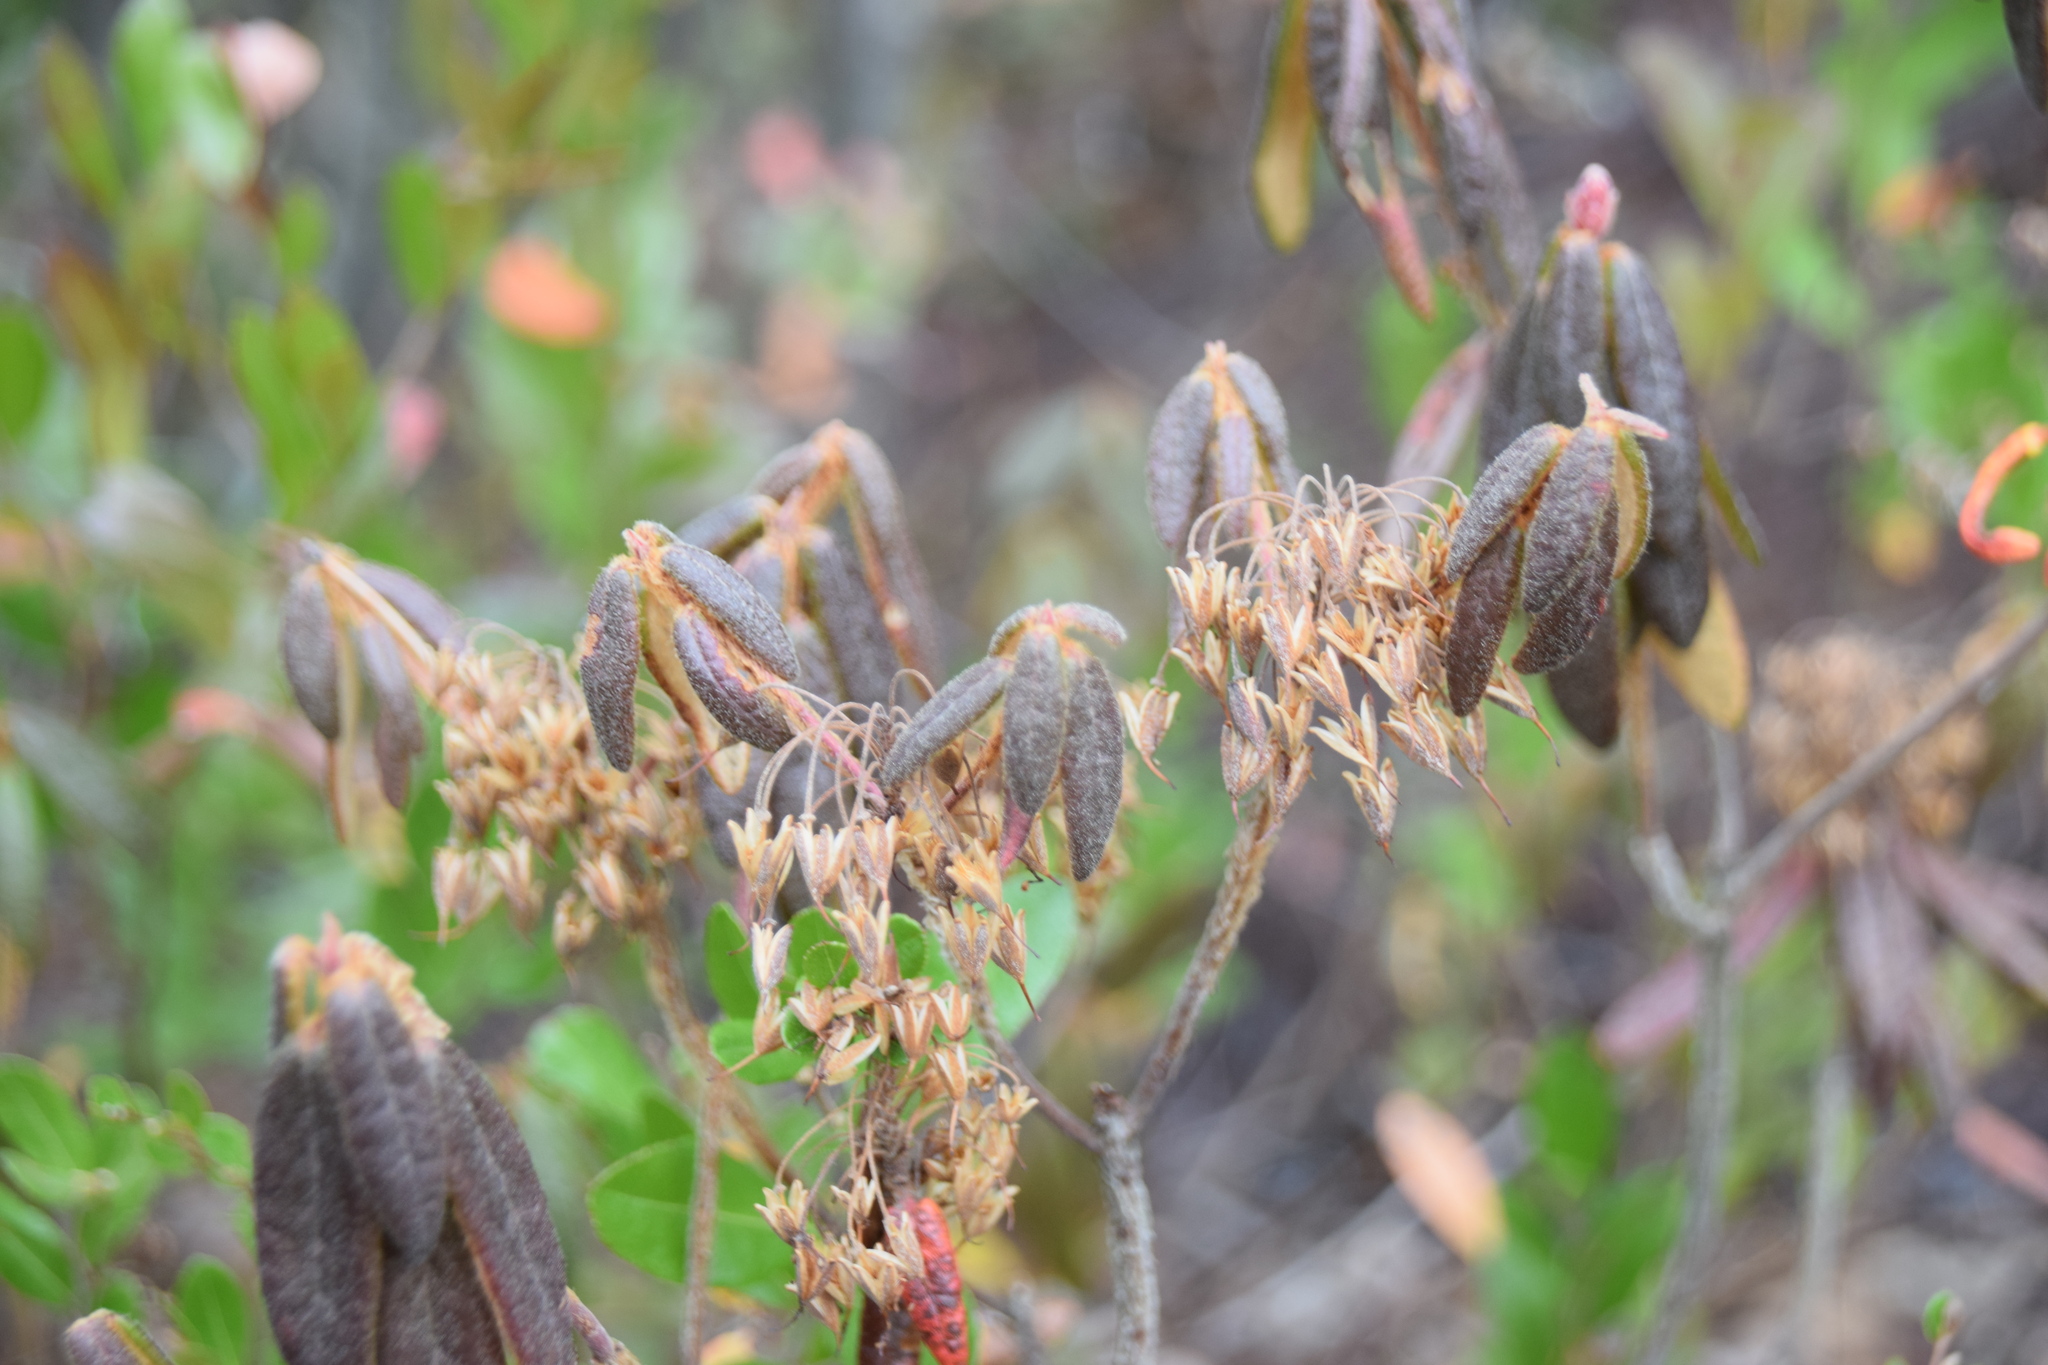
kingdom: Plantae
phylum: Tracheophyta
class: Magnoliopsida
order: Ericales
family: Ericaceae
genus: Rhododendron
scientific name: Rhododendron groenlandicum
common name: Bog labrador tea
